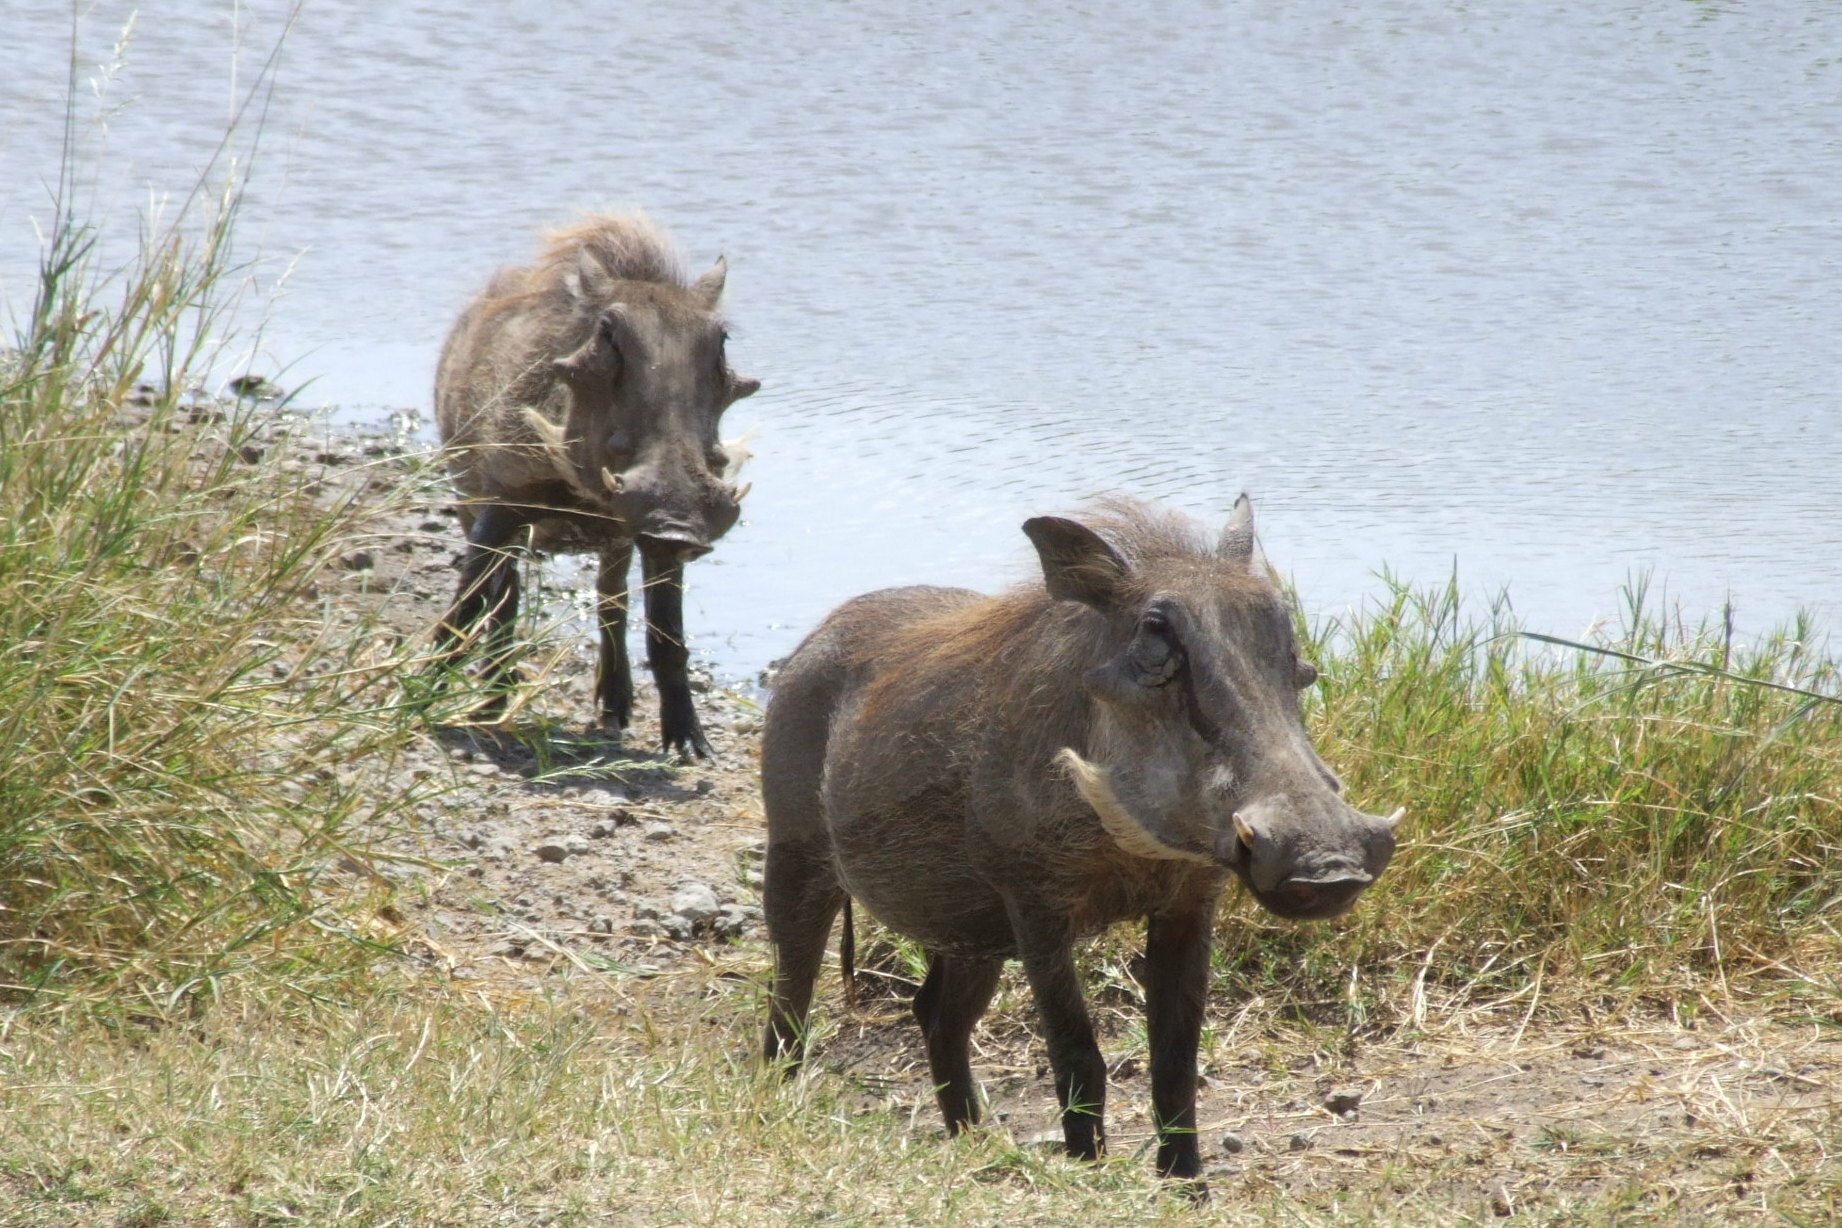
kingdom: Animalia
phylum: Chordata
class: Mammalia
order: Artiodactyla
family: Suidae
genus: Phacochoerus
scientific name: Phacochoerus africanus
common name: Common warthog
